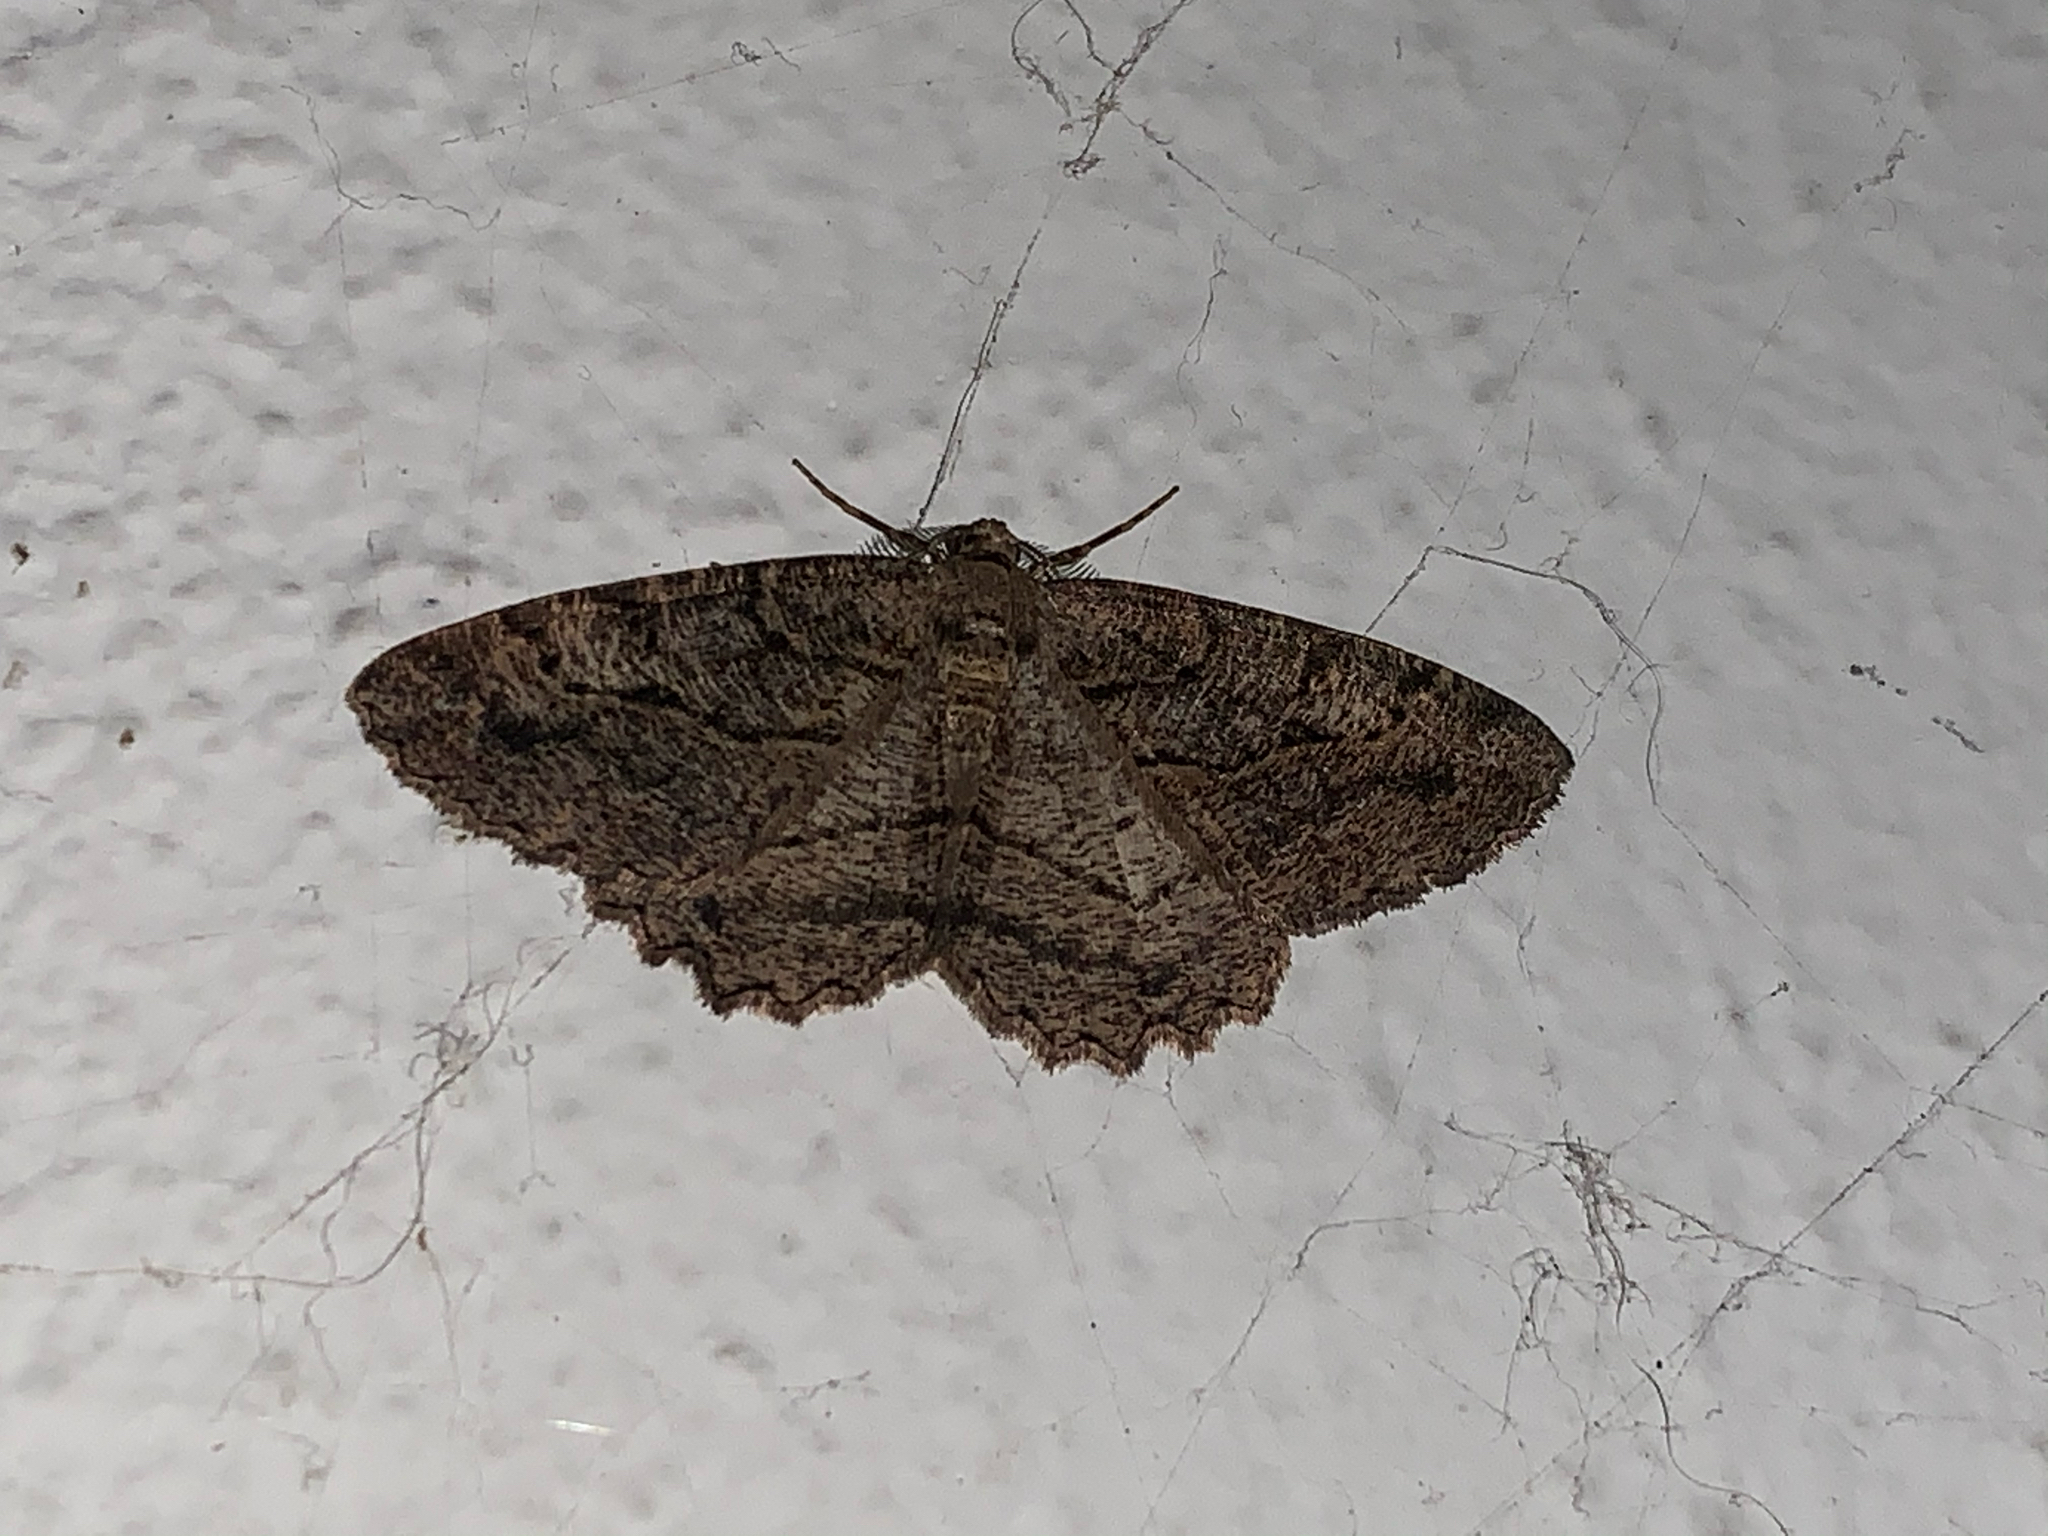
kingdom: Animalia
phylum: Arthropoda
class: Insecta
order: Lepidoptera
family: Geometridae
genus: Neoalcis
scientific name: Neoalcis californiaria
